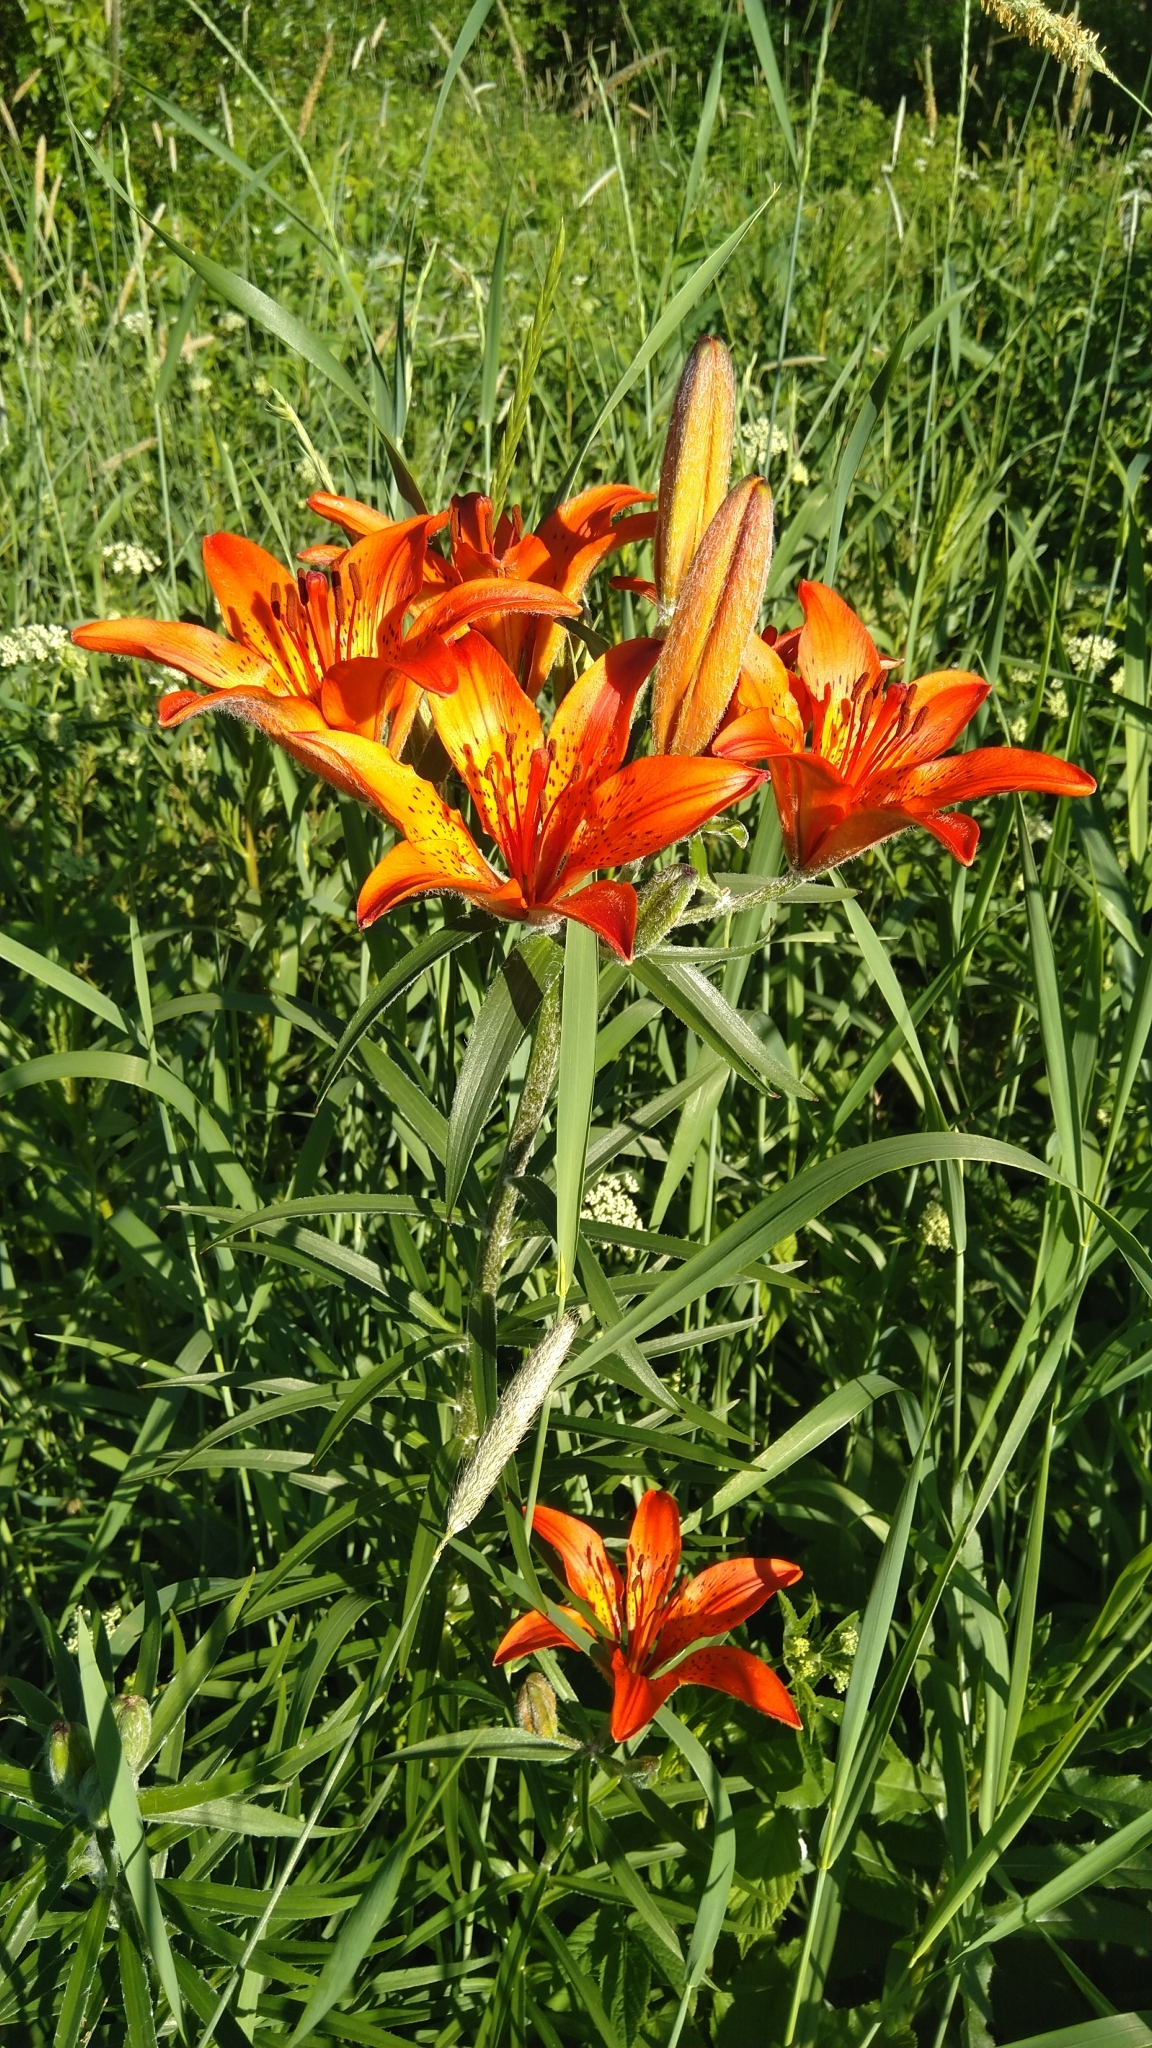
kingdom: Plantae
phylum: Tracheophyta
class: Liliopsida
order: Liliales
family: Liliaceae
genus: Lilium
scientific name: Lilium bulbiferum
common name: Orange lily
